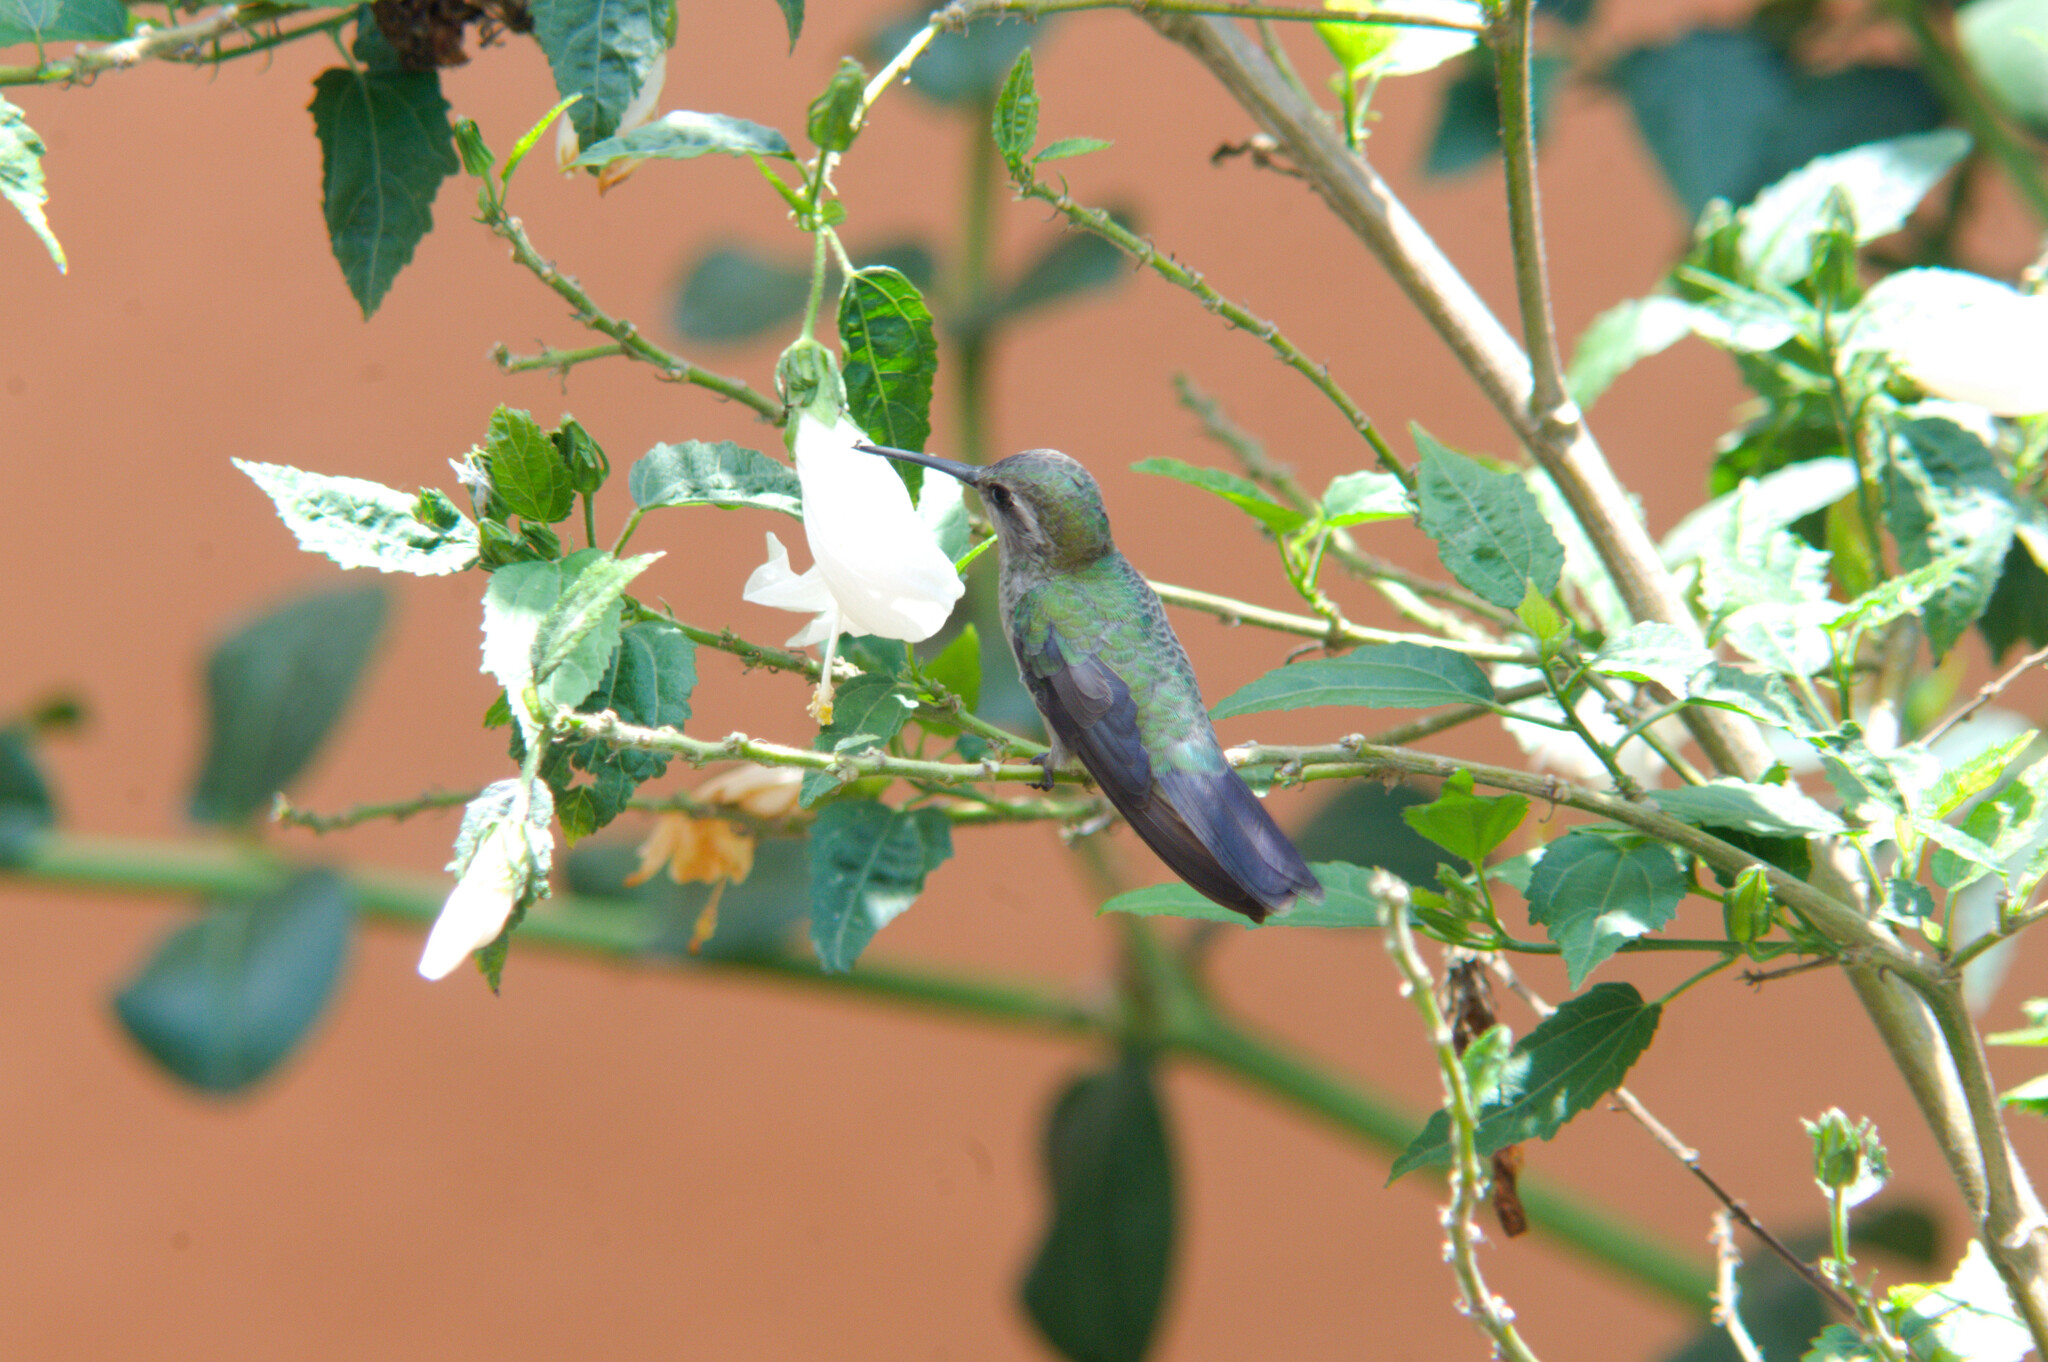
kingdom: Animalia
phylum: Chordata
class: Aves
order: Apodiformes
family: Trochilidae
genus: Cynanthus
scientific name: Cynanthus latirostris
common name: Broad-billed hummingbird
